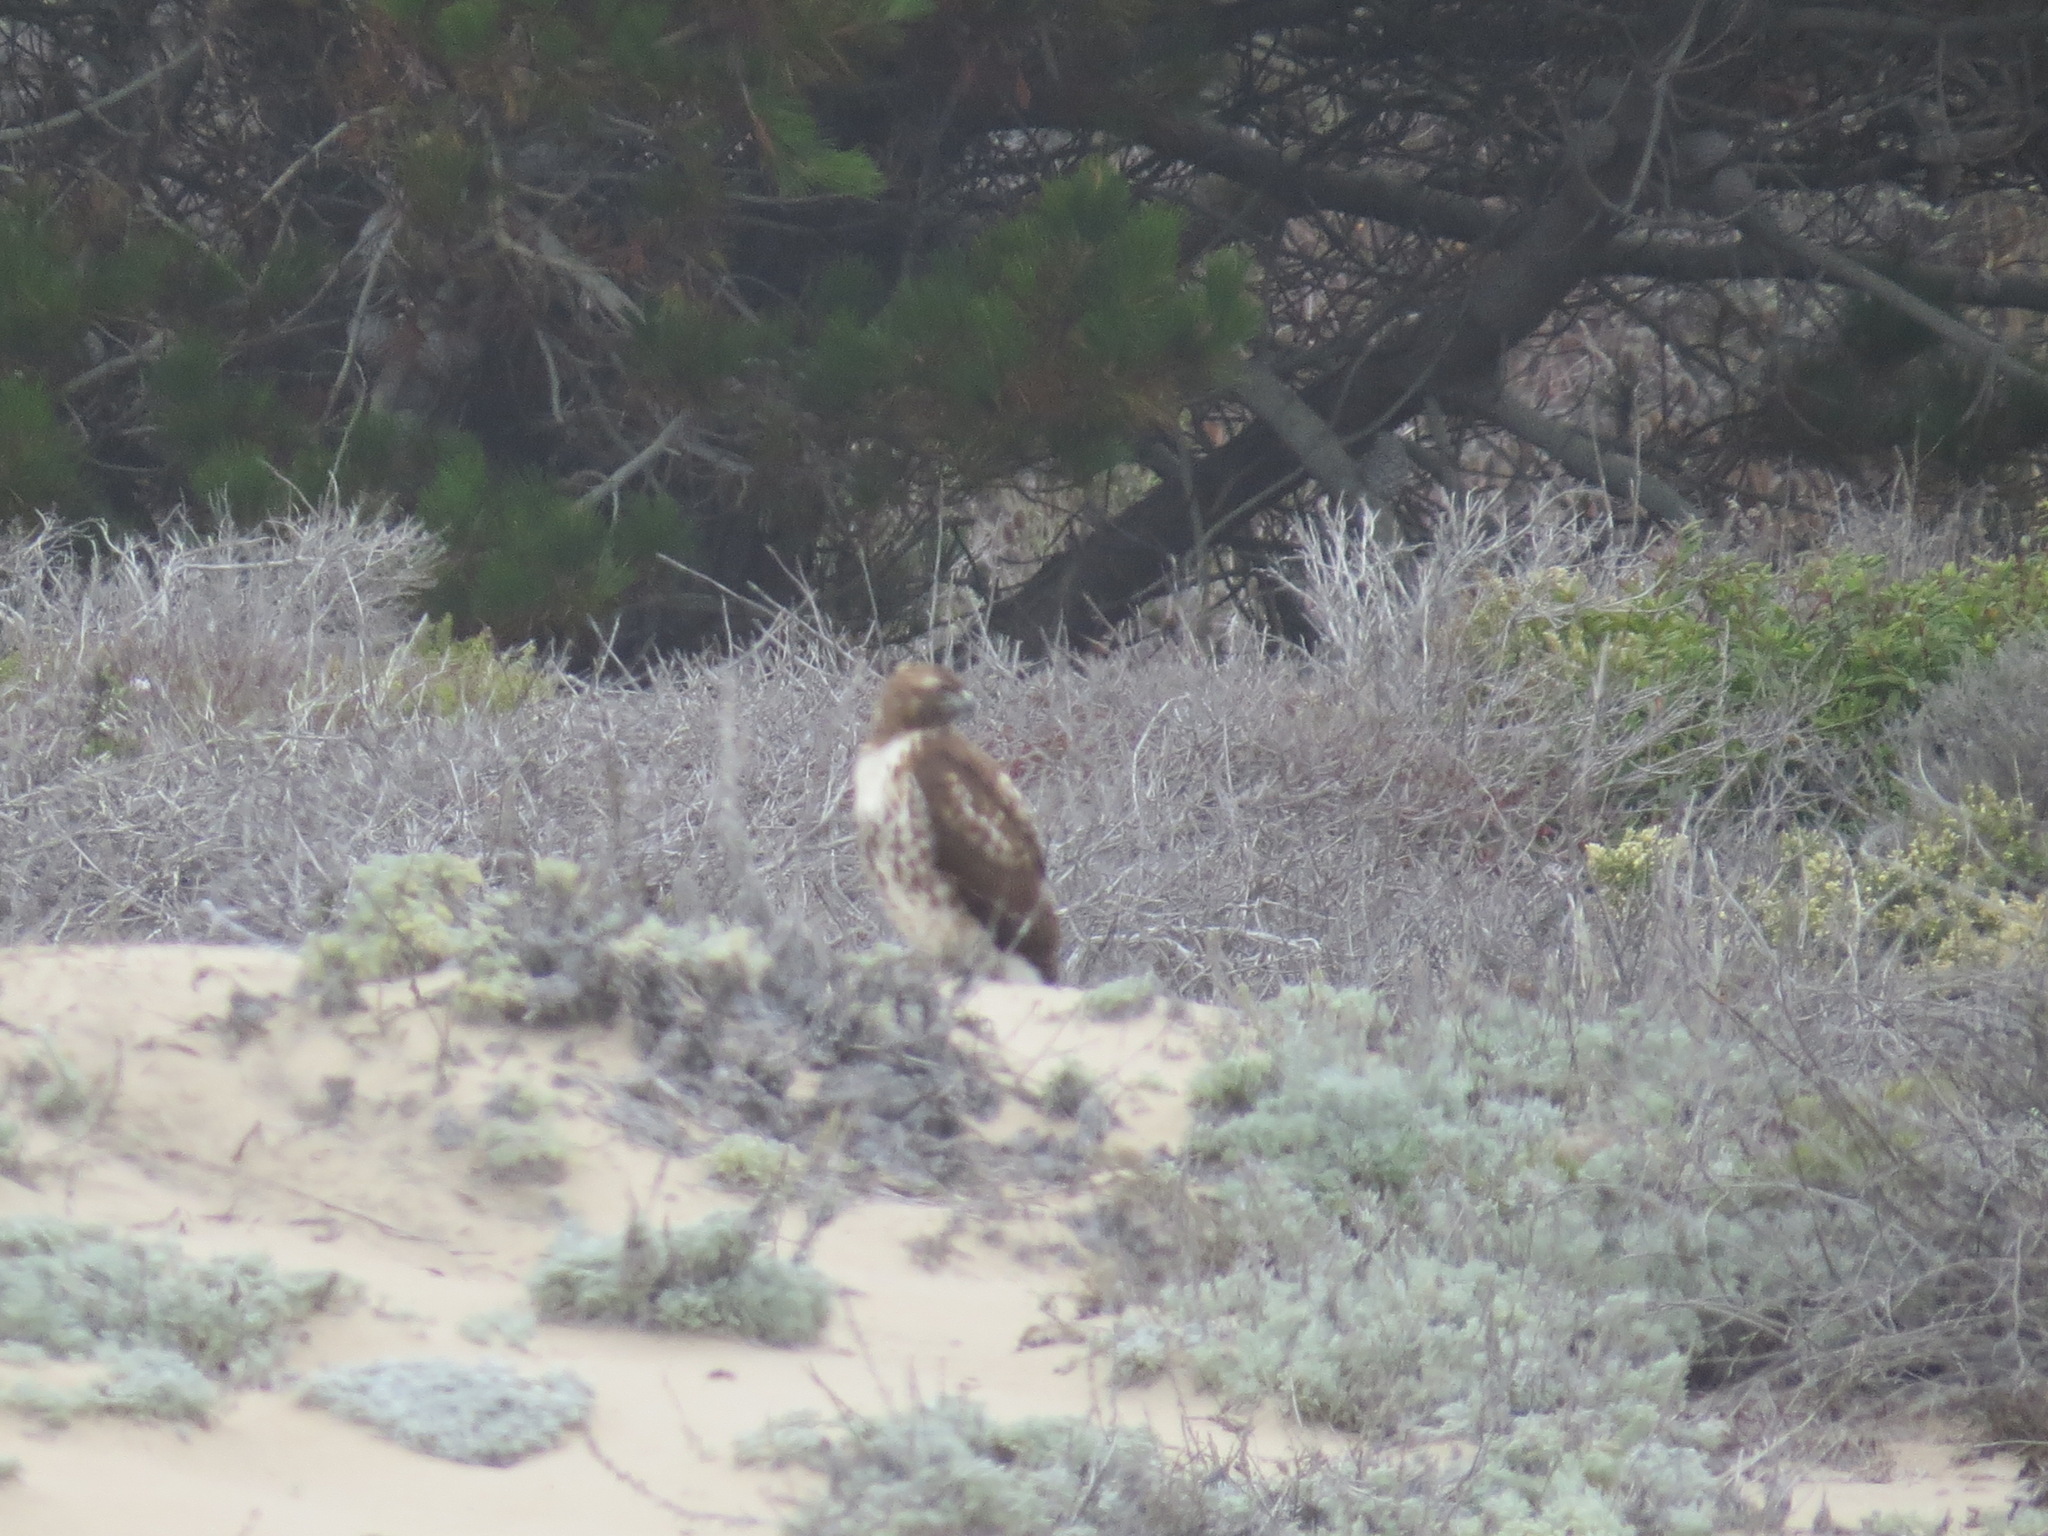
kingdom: Animalia
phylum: Chordata
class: Aves
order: Accipitriformes
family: Accipitridae
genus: Buteo
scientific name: Buteo jamaicensis
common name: Red-tailed hawk
